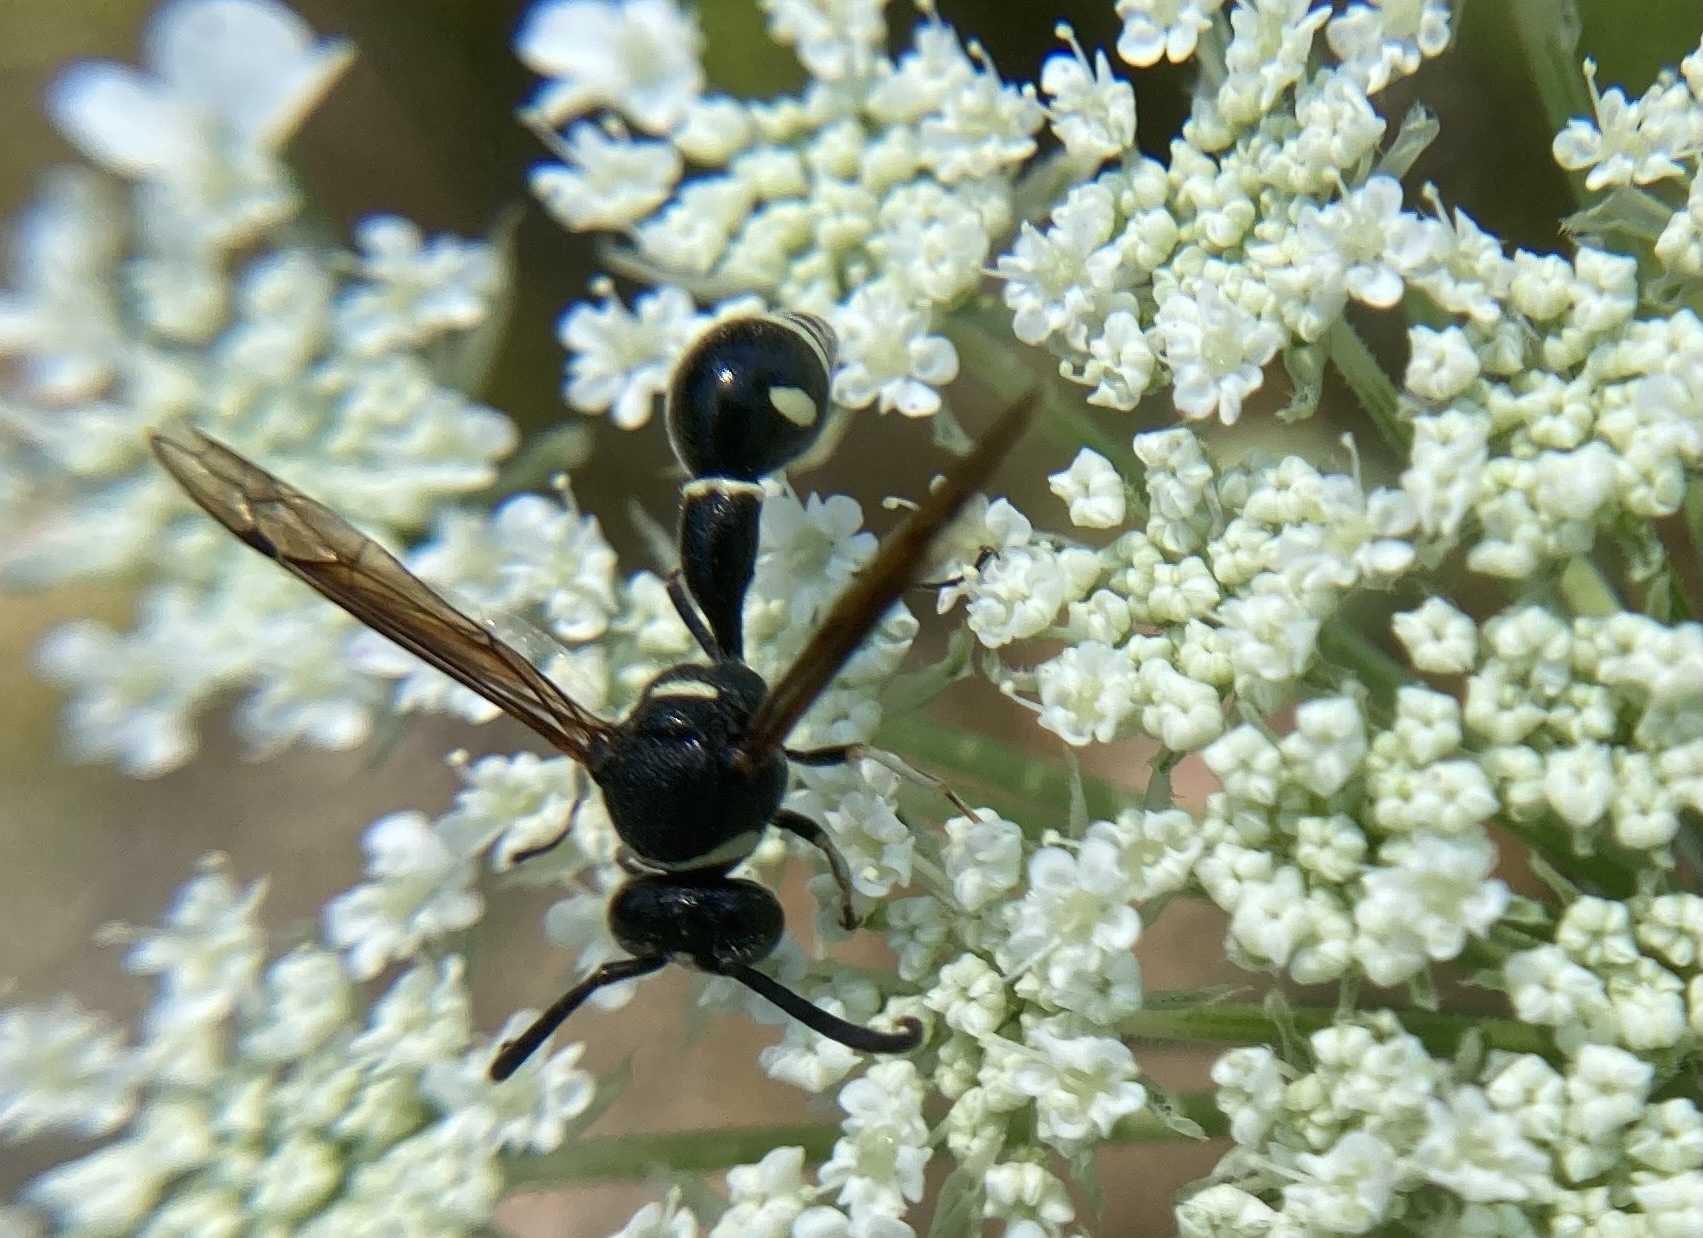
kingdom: Animalia
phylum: Arthropoda
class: Insecta
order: Hymenoptera
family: Vespidae
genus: Eumenes
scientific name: Eumenes fraternus
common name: Fraternal potter wasp
